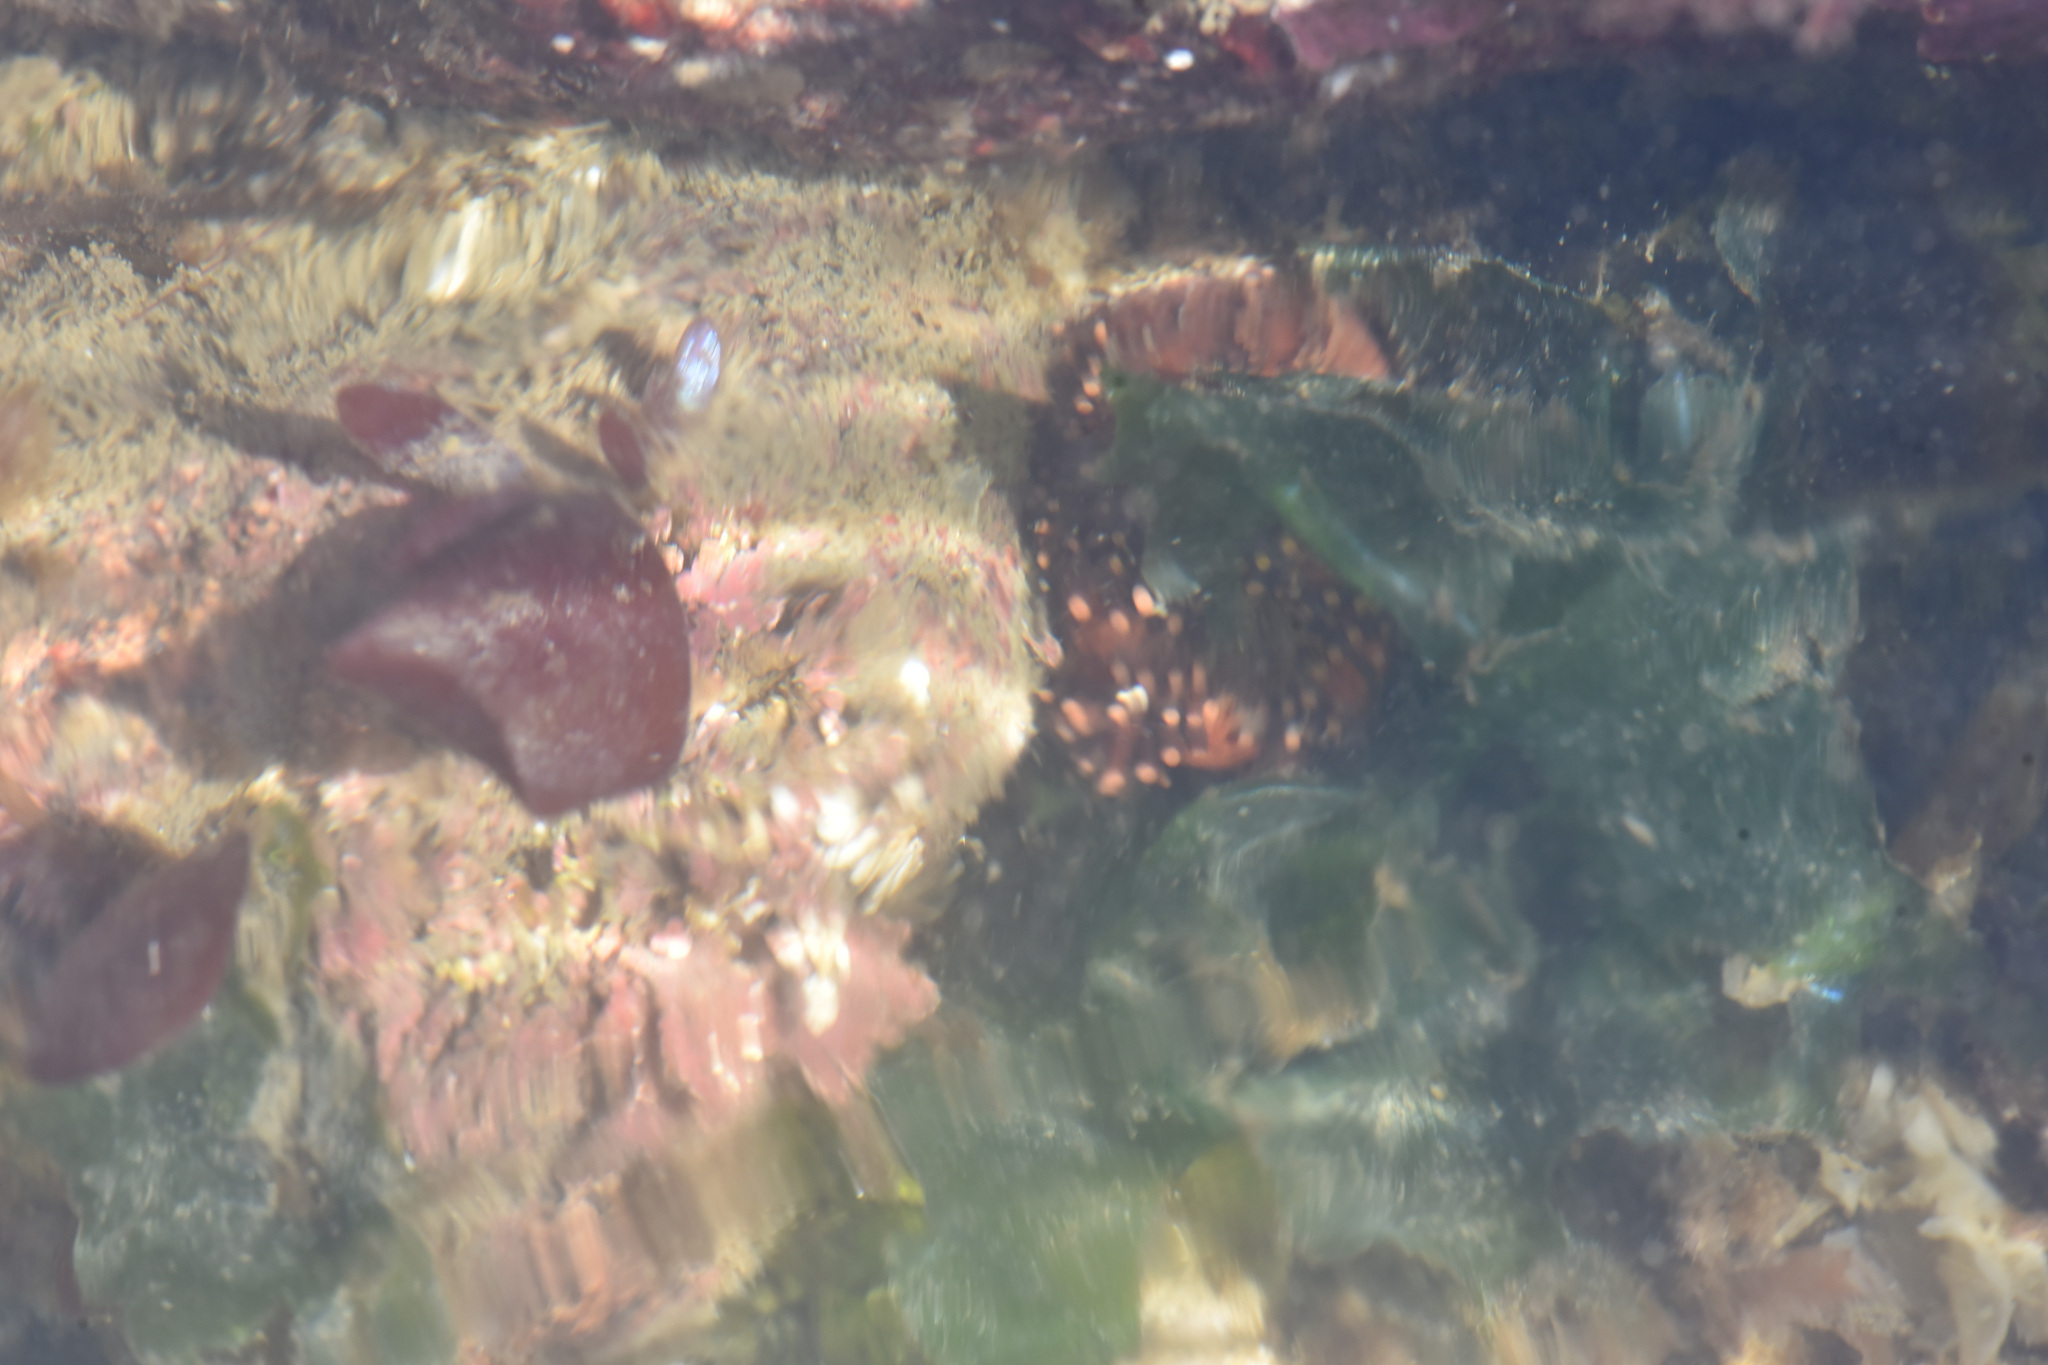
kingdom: Animalia
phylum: Echinodermata
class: Holothuroidea
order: Dendrochirotida
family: Cucumariidae
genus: Cucumaria
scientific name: Cucumaria miniata
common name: Orange sea cucumber
